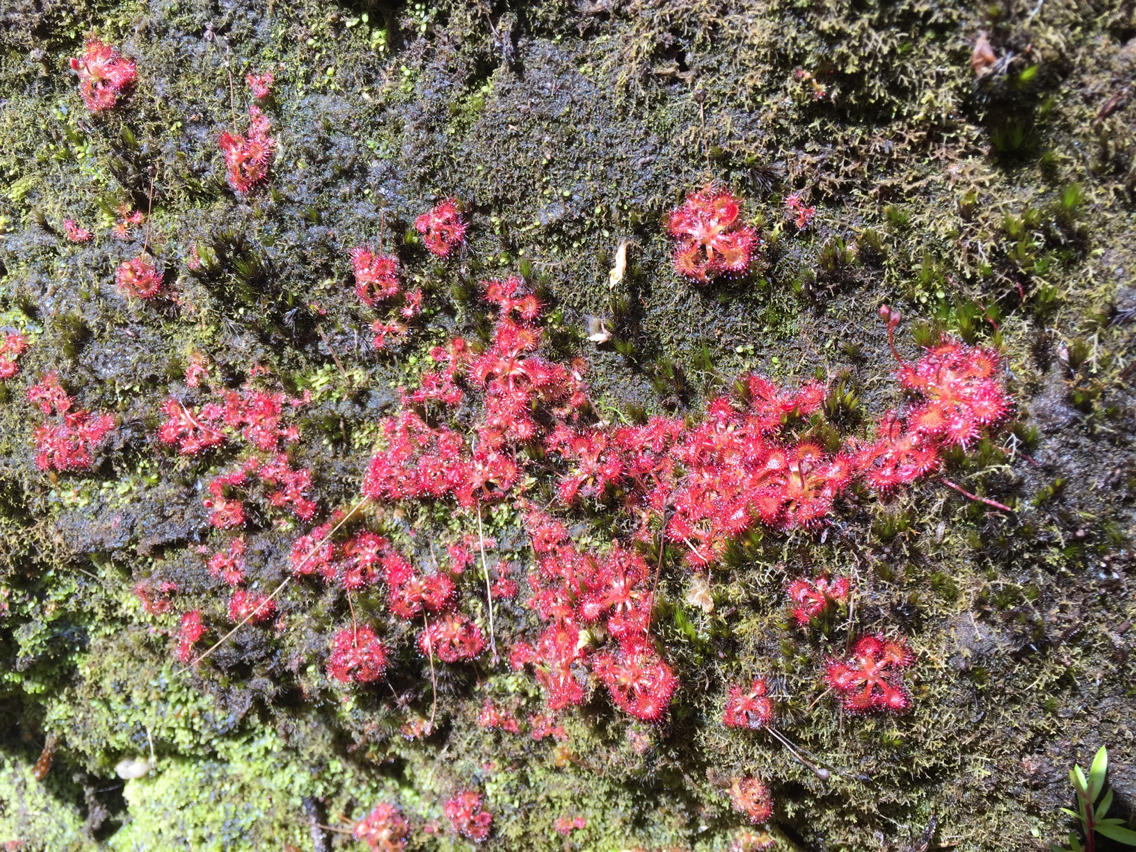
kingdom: Plantae
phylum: Tracheophyta
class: Magnoliopsida
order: Caryophyllales
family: Droseraceae
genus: Drosera
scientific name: Drosera spatulata
